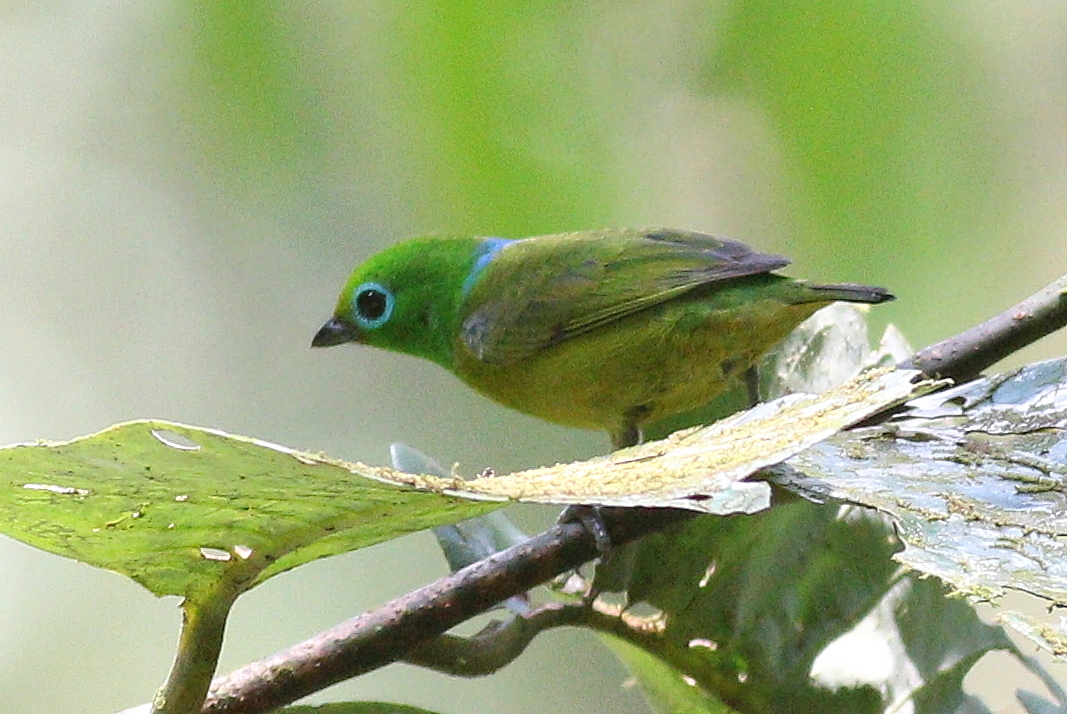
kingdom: Animalia
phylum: Chordata
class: Aves
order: Passeriformes
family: Fringillidae
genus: Chlorophonia
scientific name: Chlorophonia cyanea
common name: Blue-naped chlorophonia
